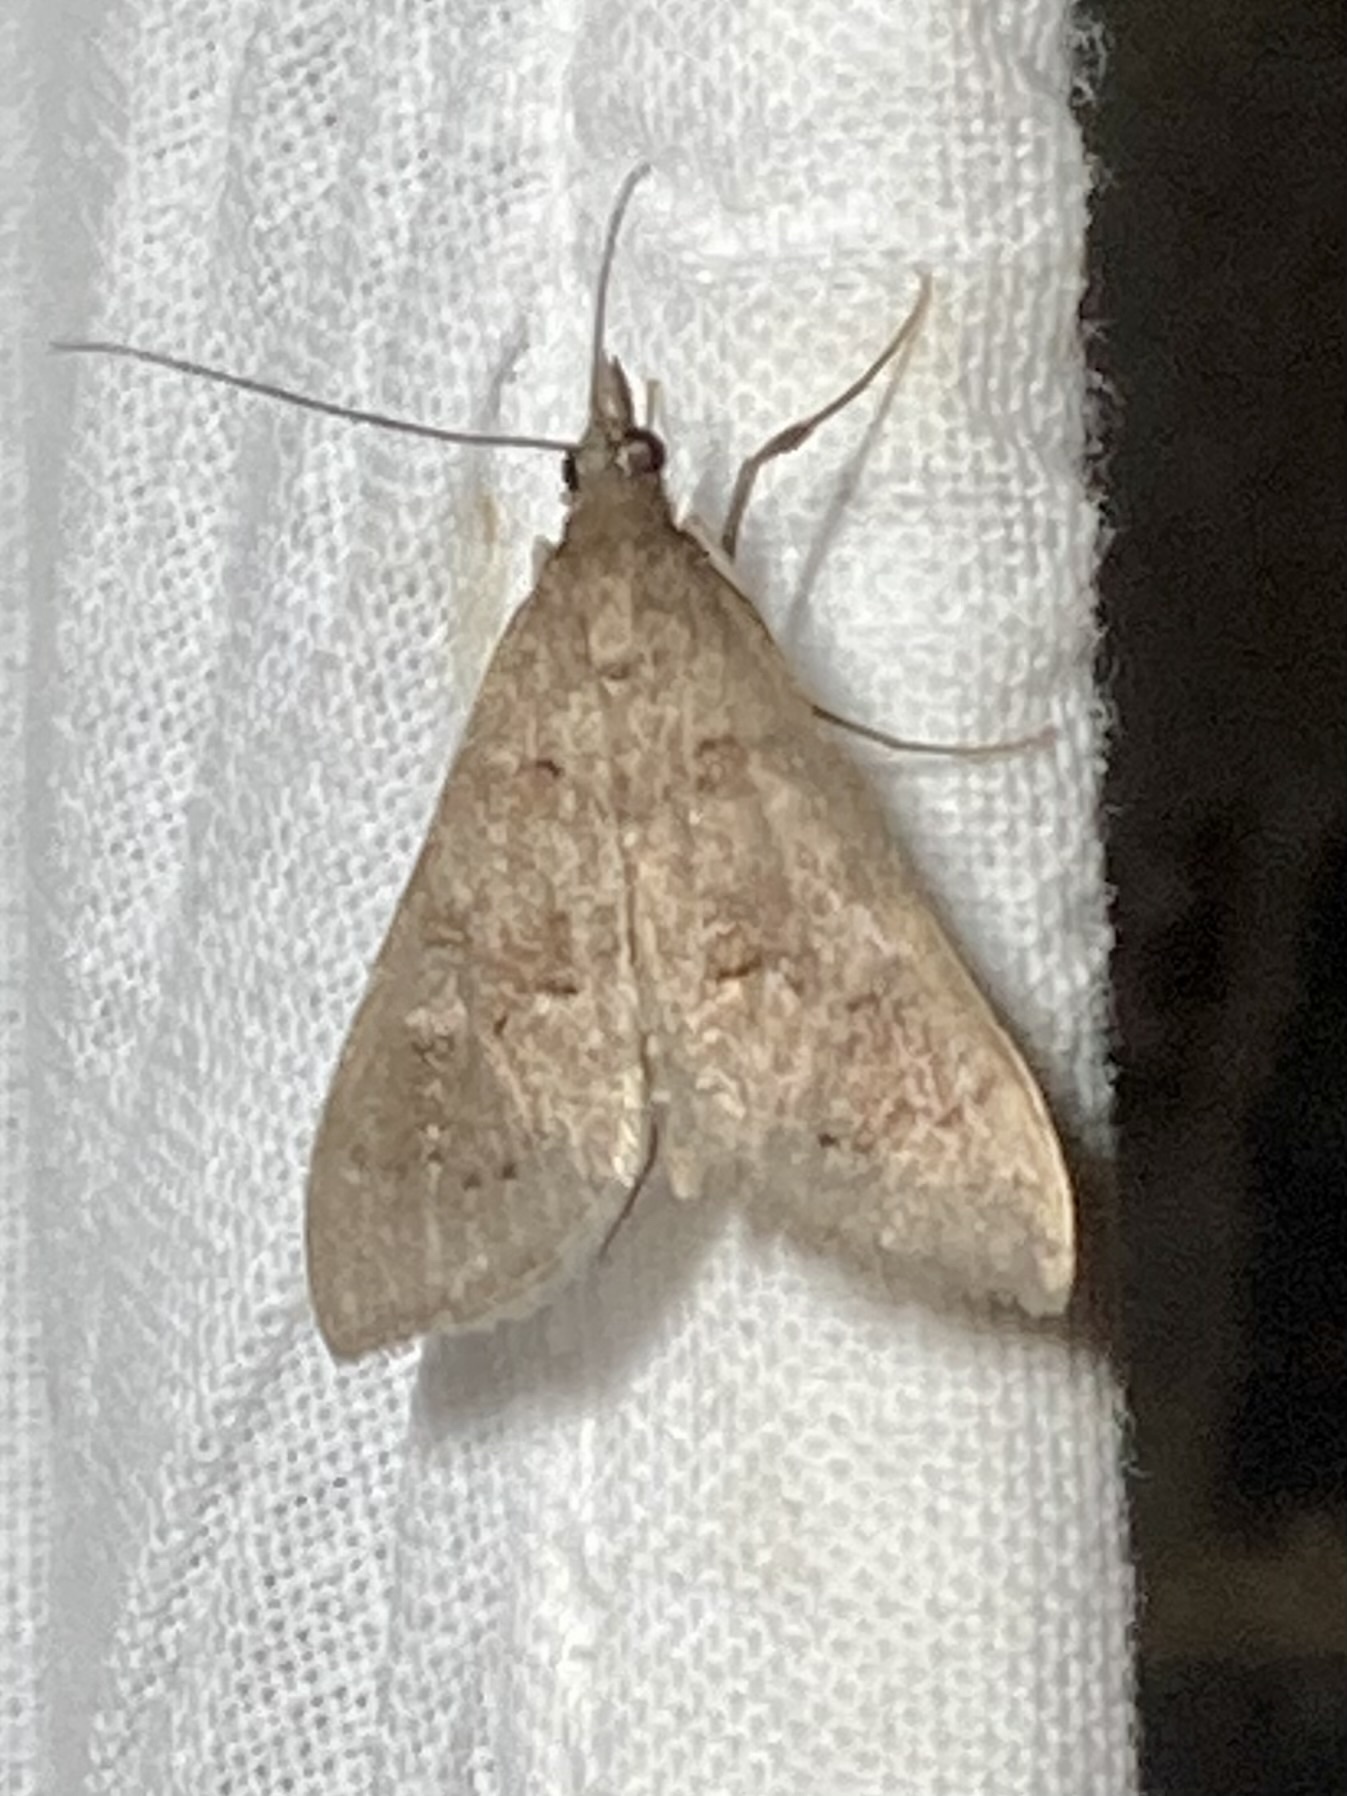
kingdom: Animalia
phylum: Arthropoda
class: Insecta
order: Lepidoptera
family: Crambidae
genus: Mecyna
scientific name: Mecyna asinalis
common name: Coastal pearl
